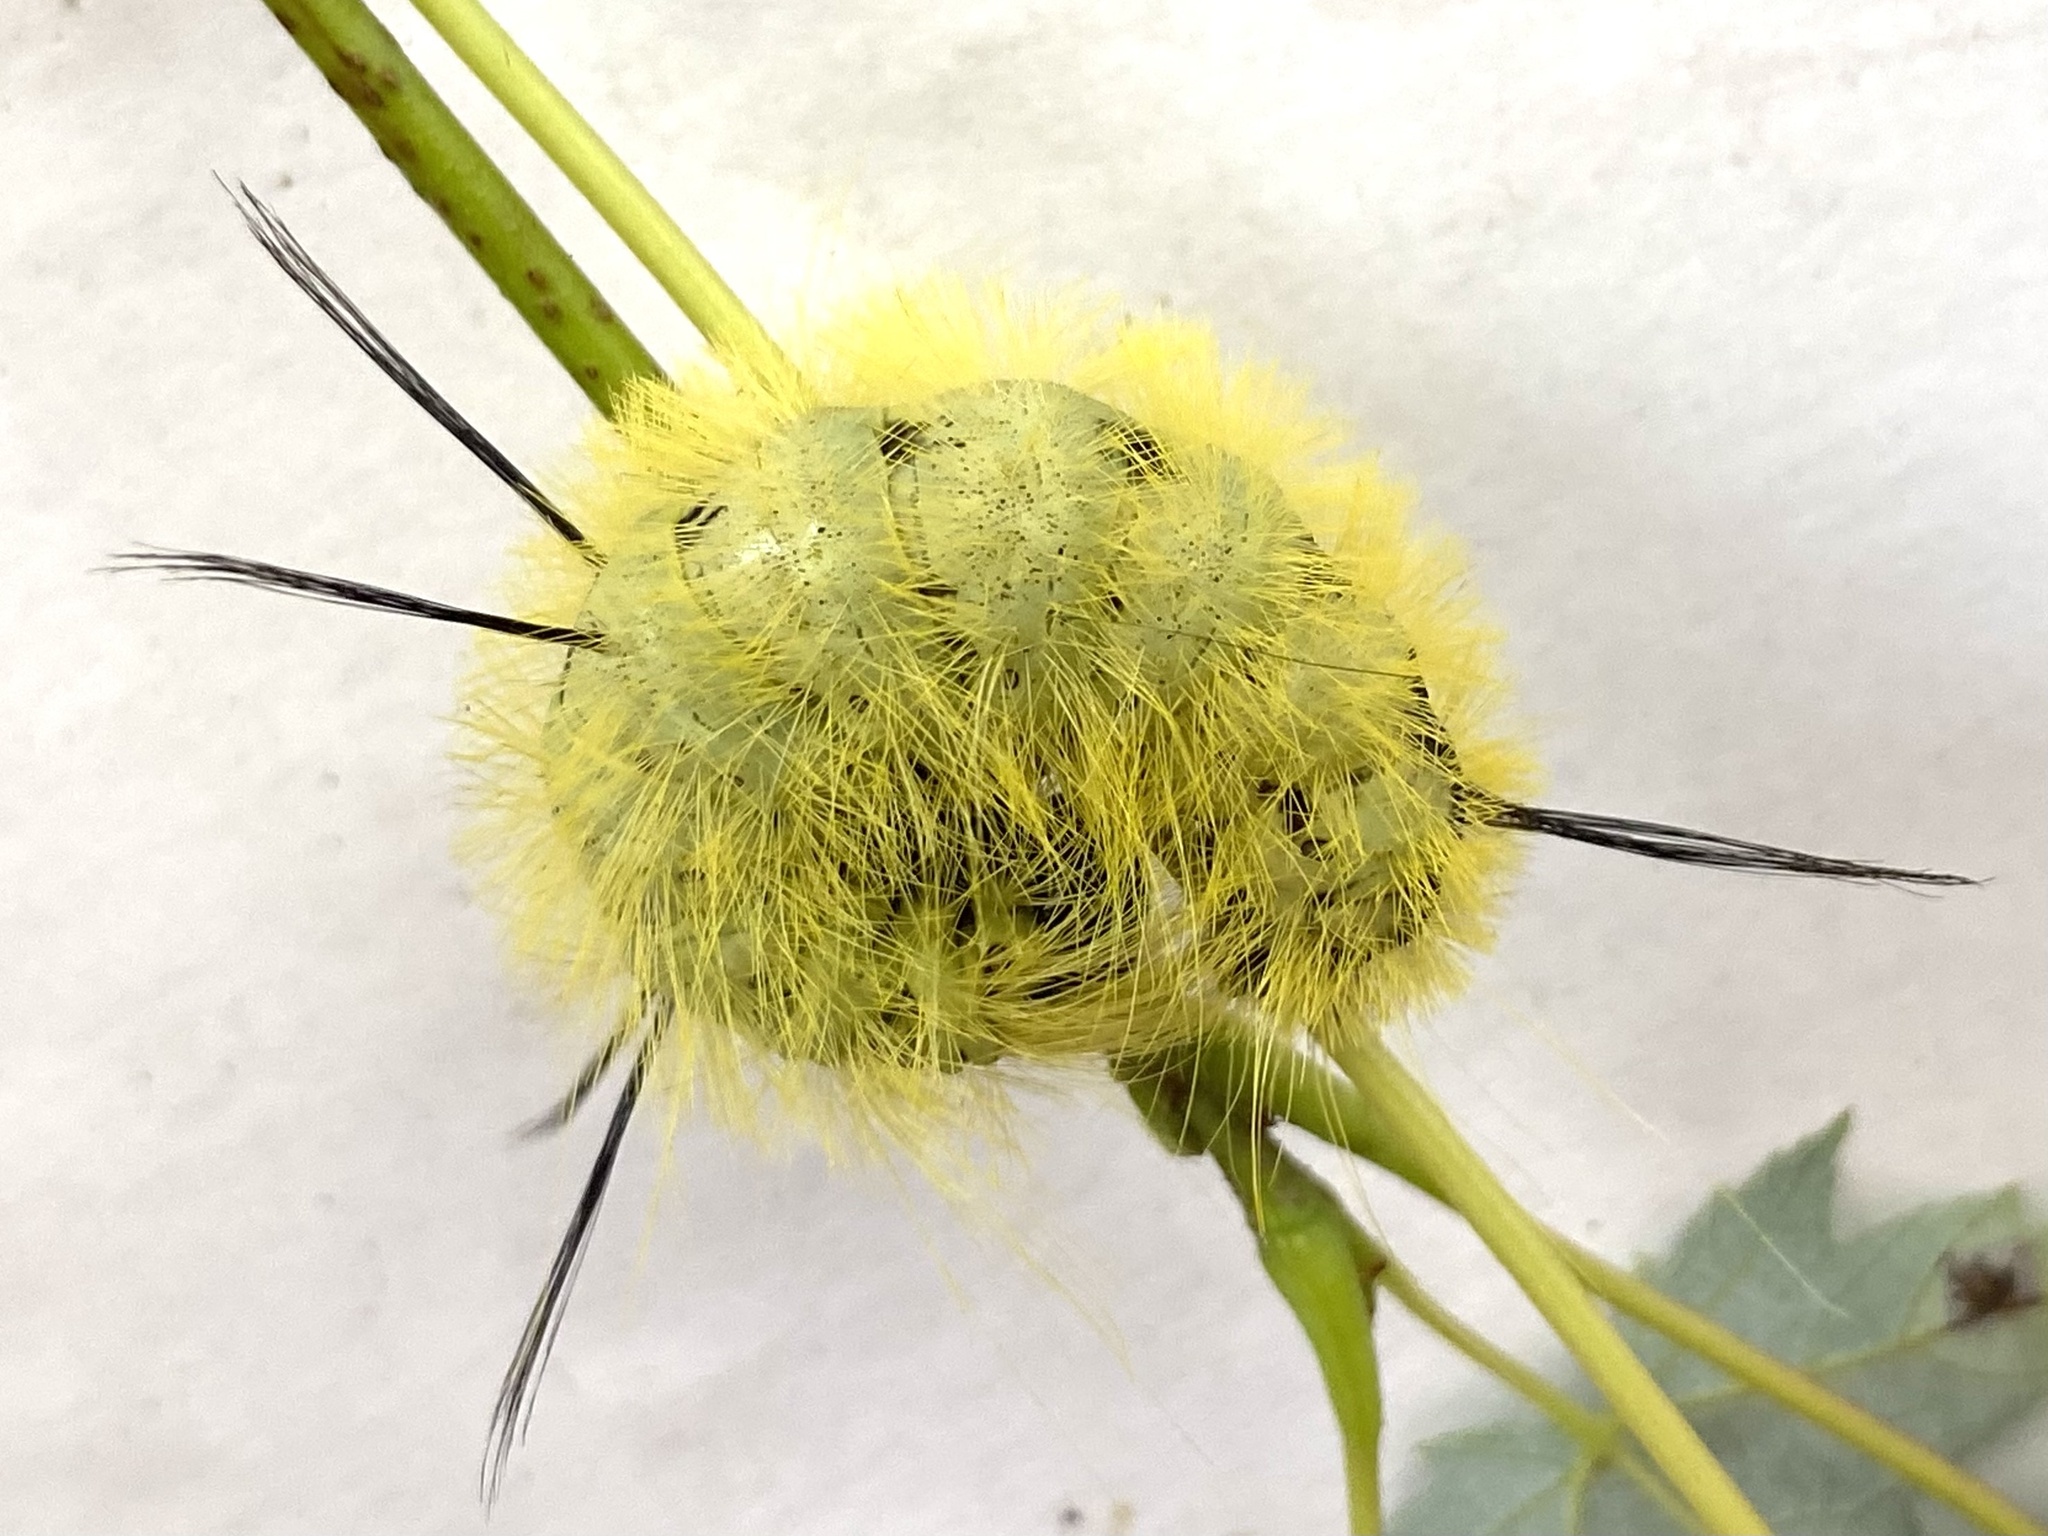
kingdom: Animalia
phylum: Arthropoda
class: Insecta
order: Lepidoptera
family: Noctuidae
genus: Acronicta
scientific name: Acronicta americana
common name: American dagger
